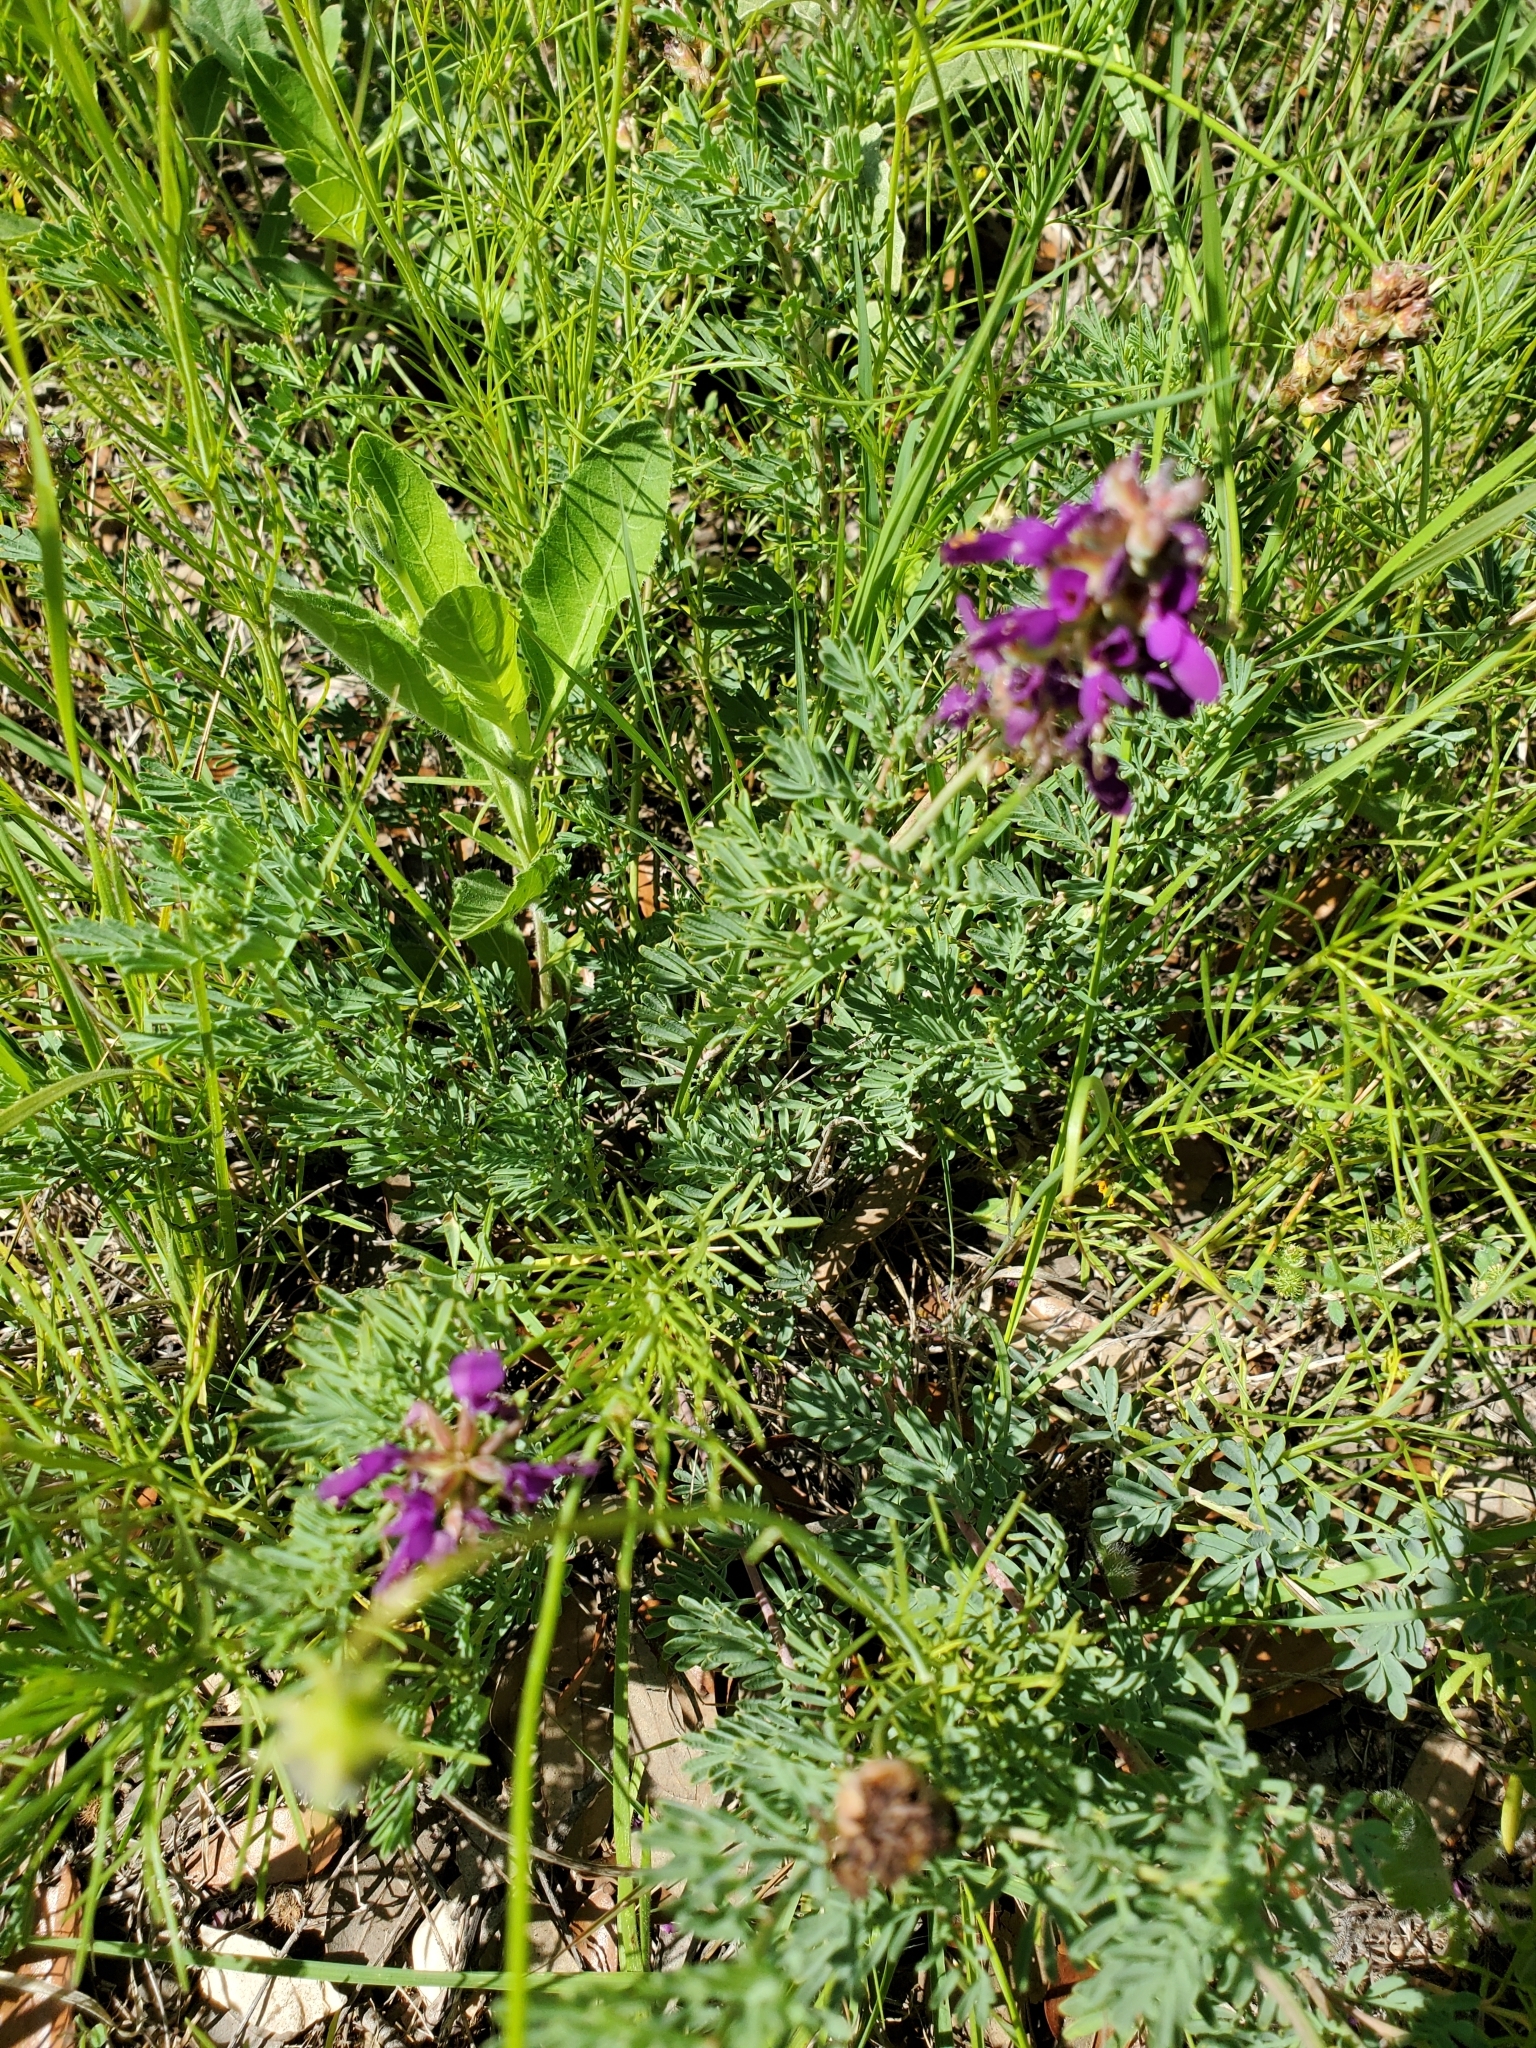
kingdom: Plantae
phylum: Tracheophyta
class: Magnoliopsida
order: Fabales
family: Fabaceae
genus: Dalea
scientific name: Dalea lasiathera
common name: Purple prairie-clover
